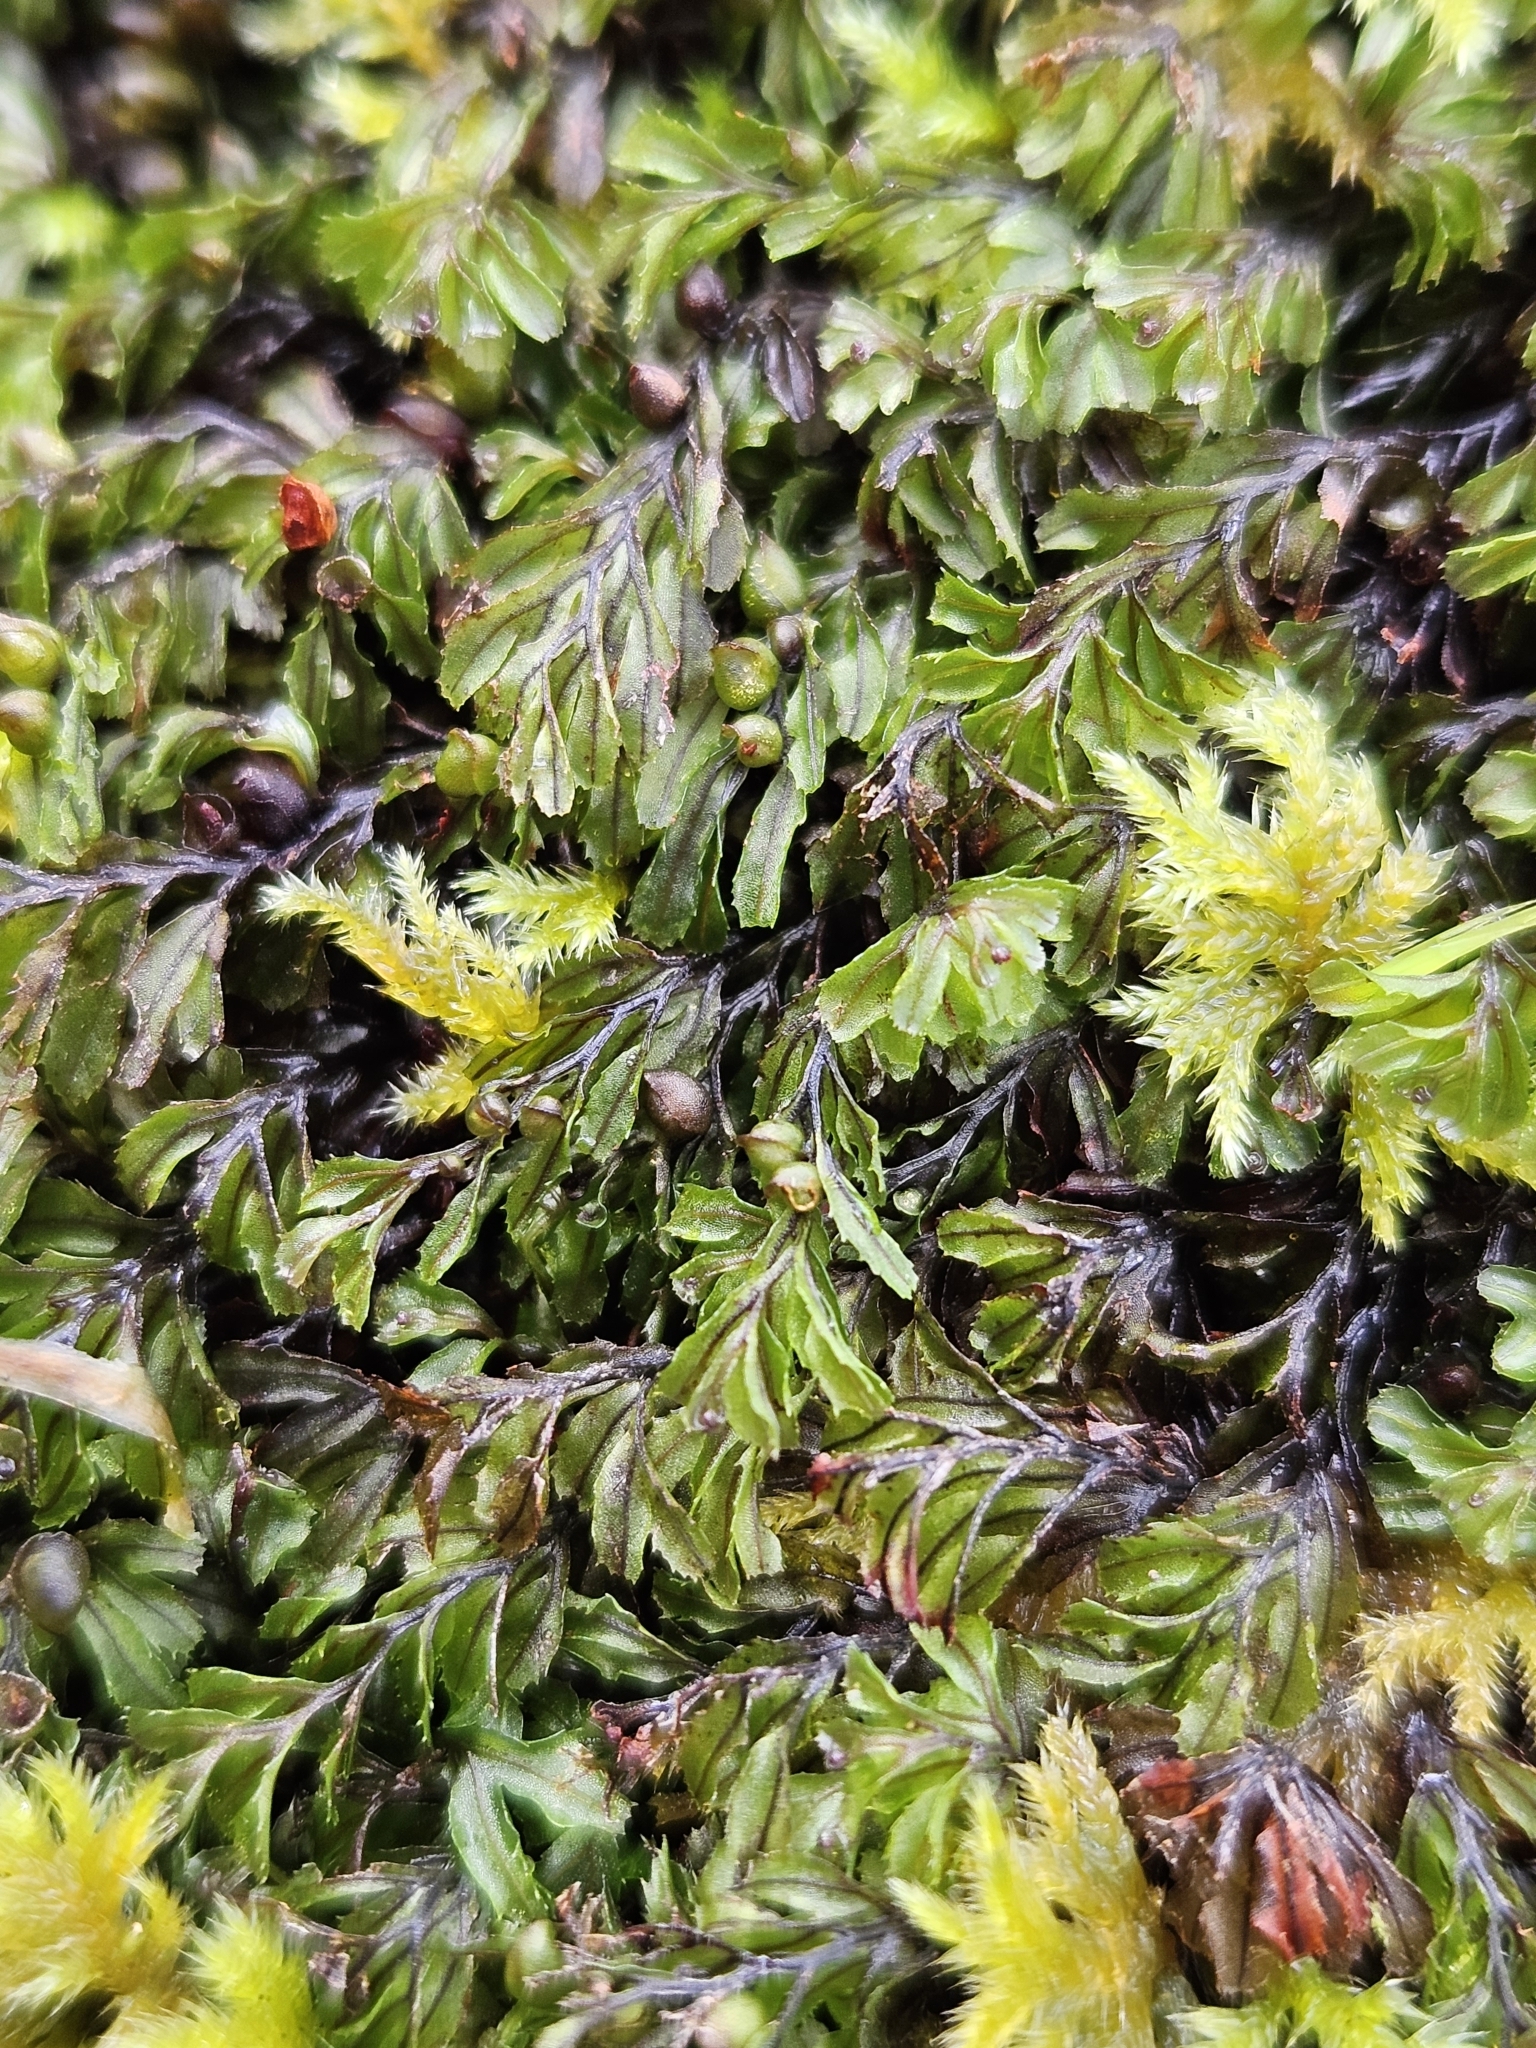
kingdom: Plantae
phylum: Tracheophyta
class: Polypodiopsida
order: Hymenophyllales
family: Hymenophyllaceae
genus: Hymenophyllum
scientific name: Hymenophyllum wilsonii
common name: Wilson's filmy fern
